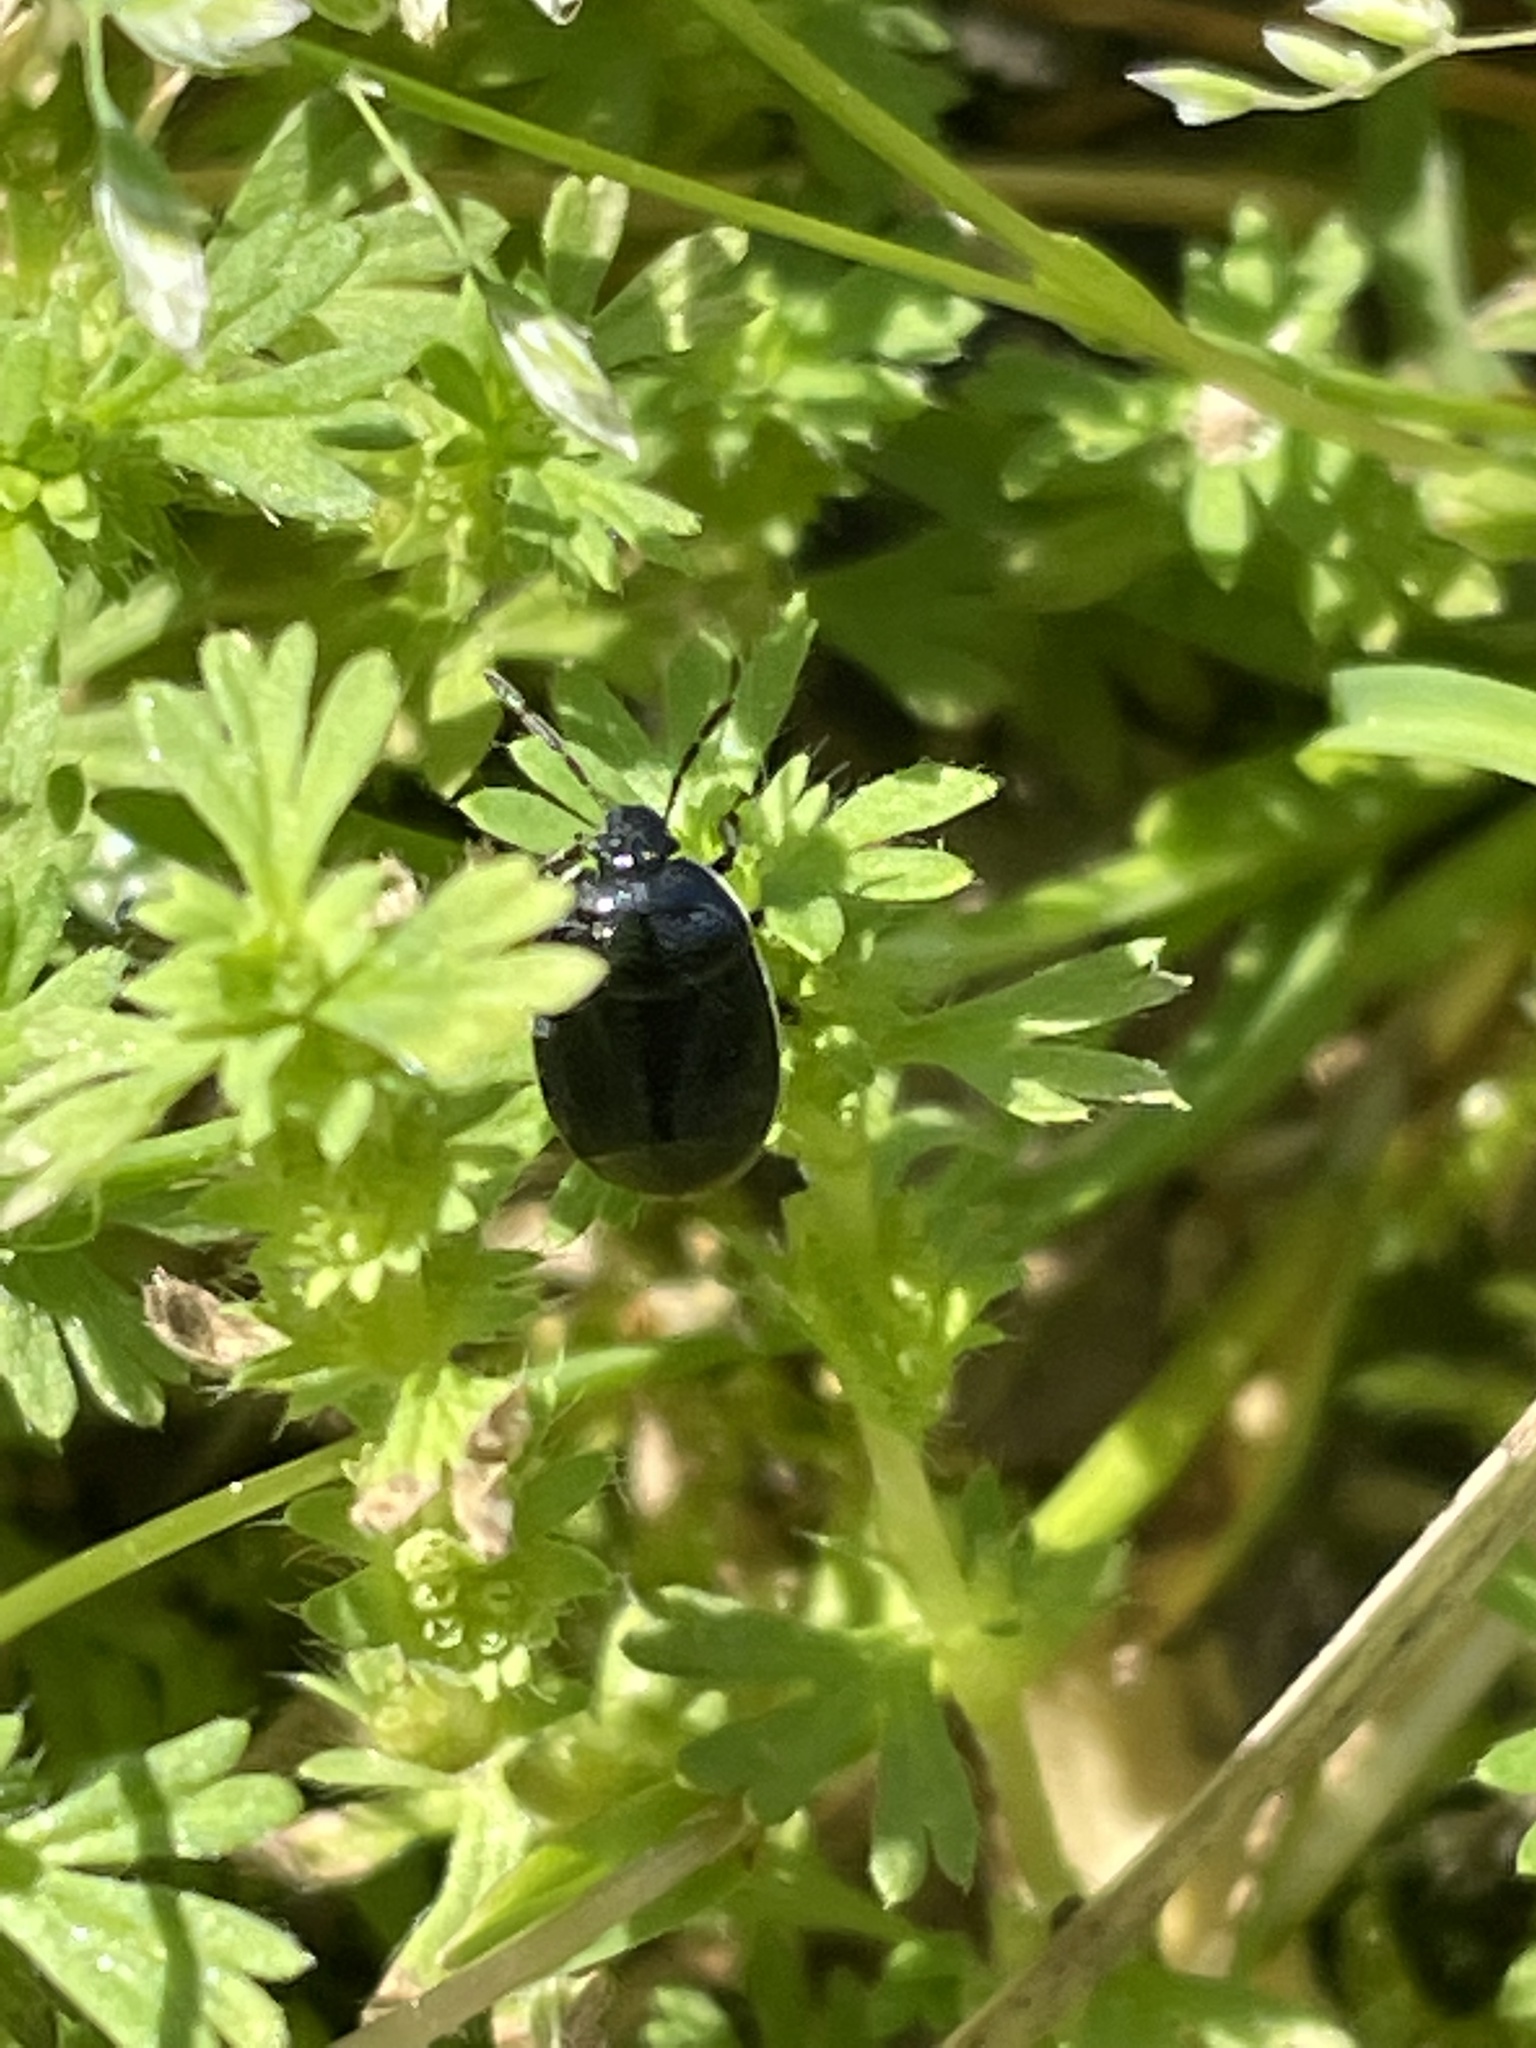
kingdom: Animalia
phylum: Arthropoda
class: Insecta
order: Hemiptera
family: Cydnidae
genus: Sehirus
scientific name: Sehirus cinctus
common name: White-margined burrower bug
